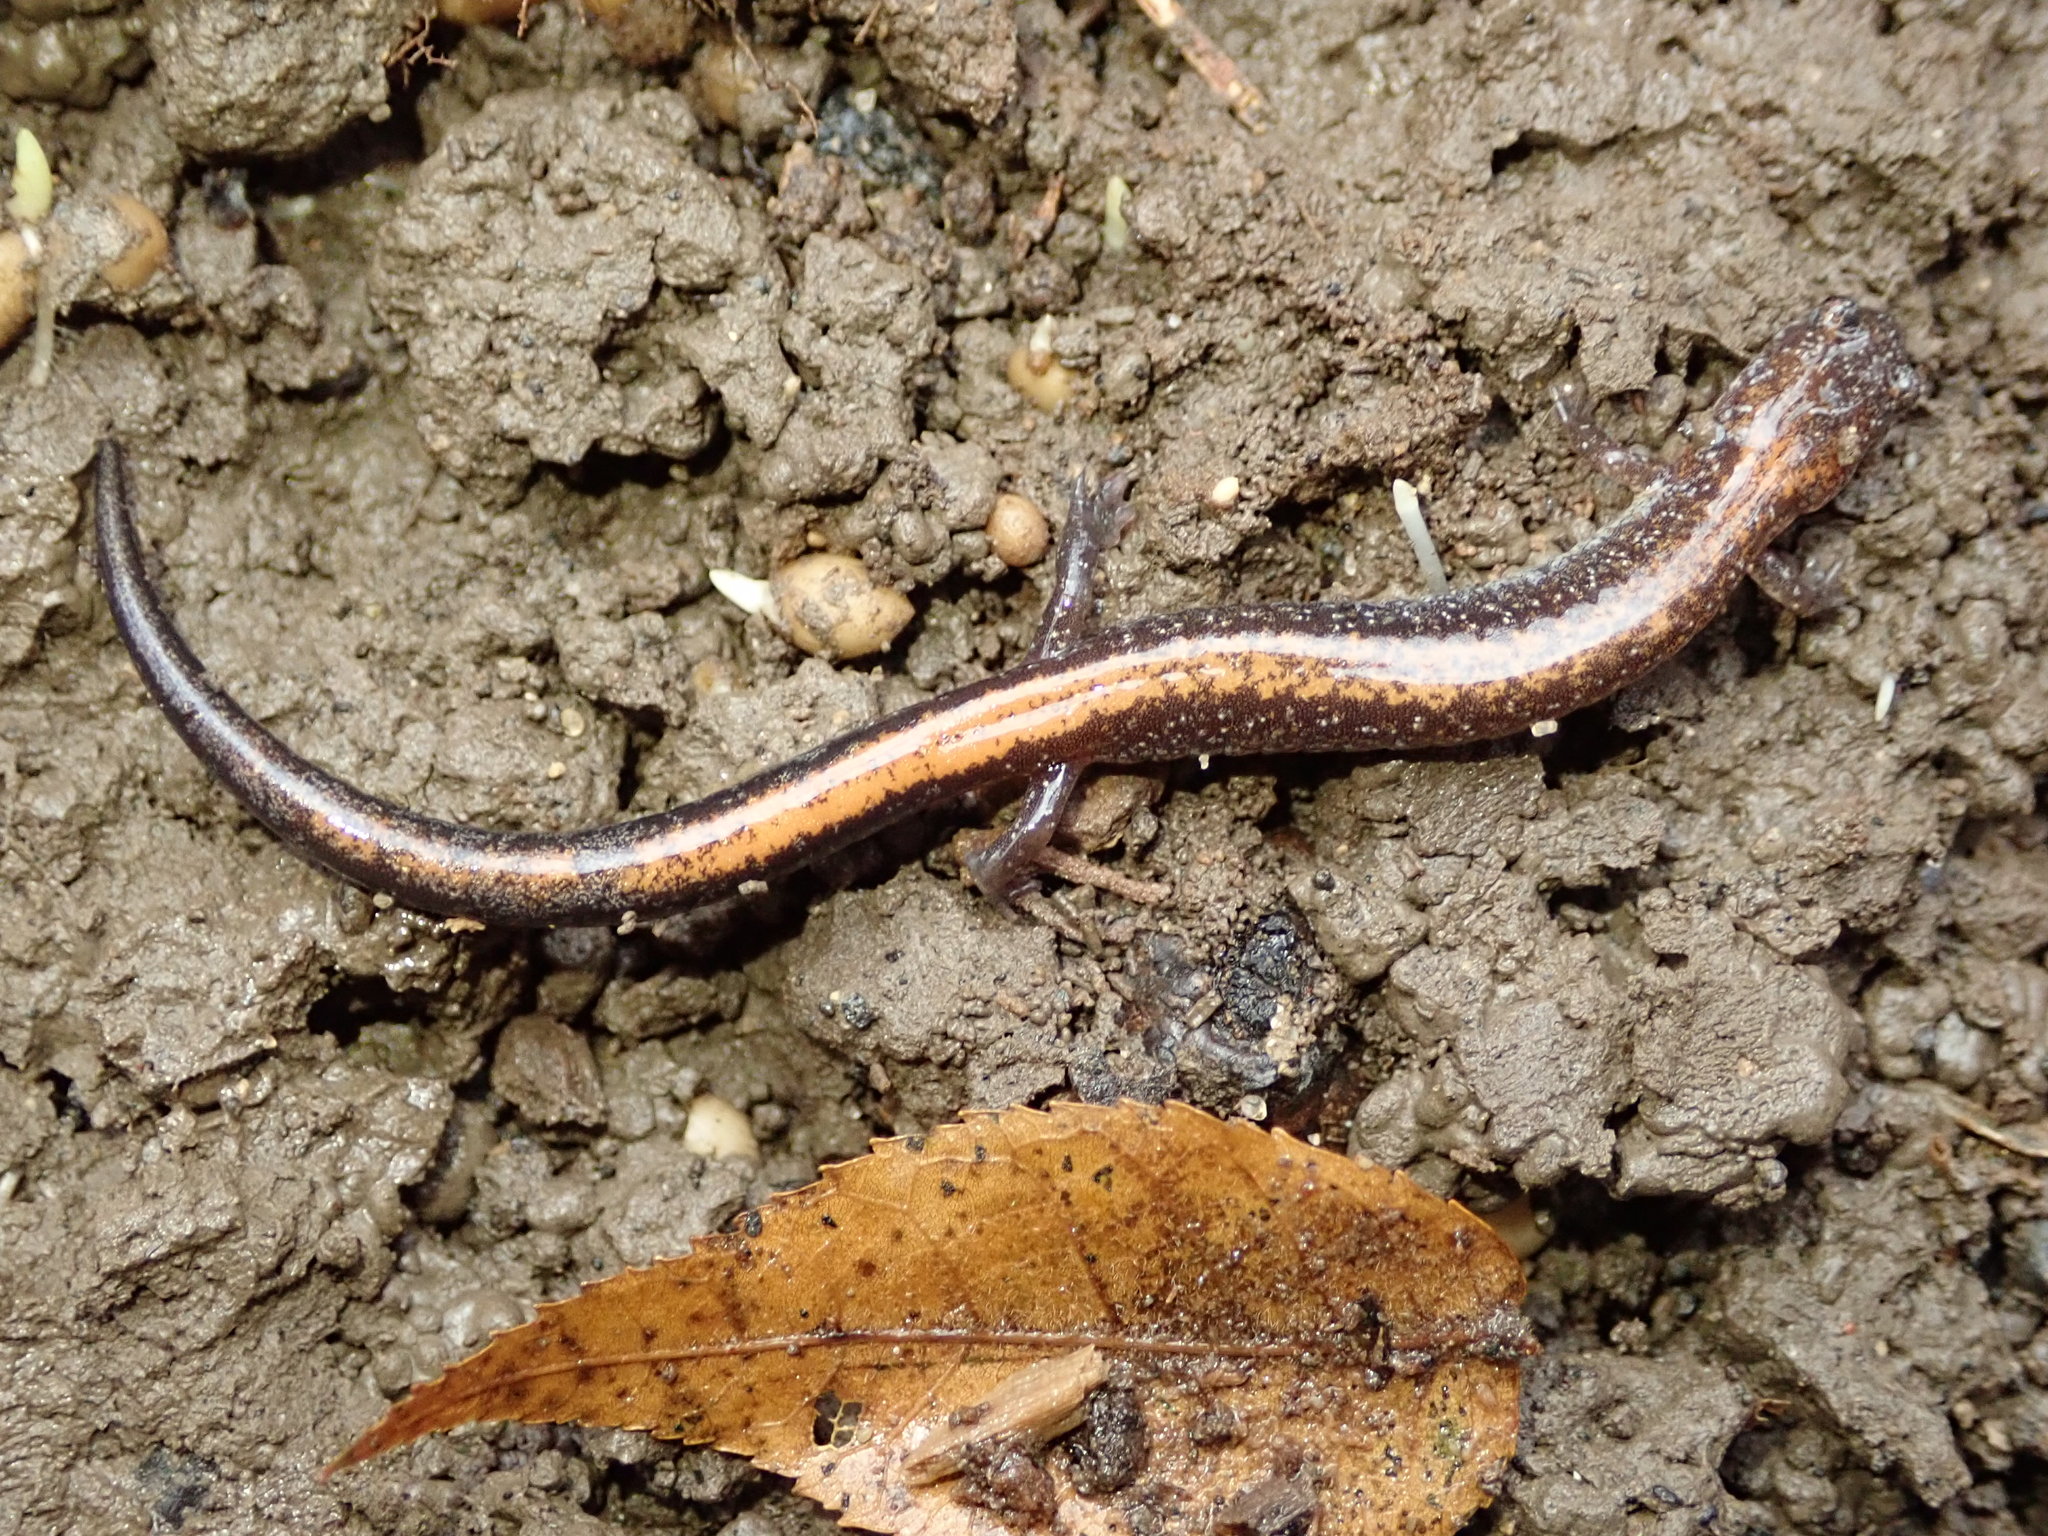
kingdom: Animalia
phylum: Chordata
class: Amphibia
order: Caudata
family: Plethodontidae
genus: Plethodon
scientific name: Plethodon cinereus
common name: Redback salamander
